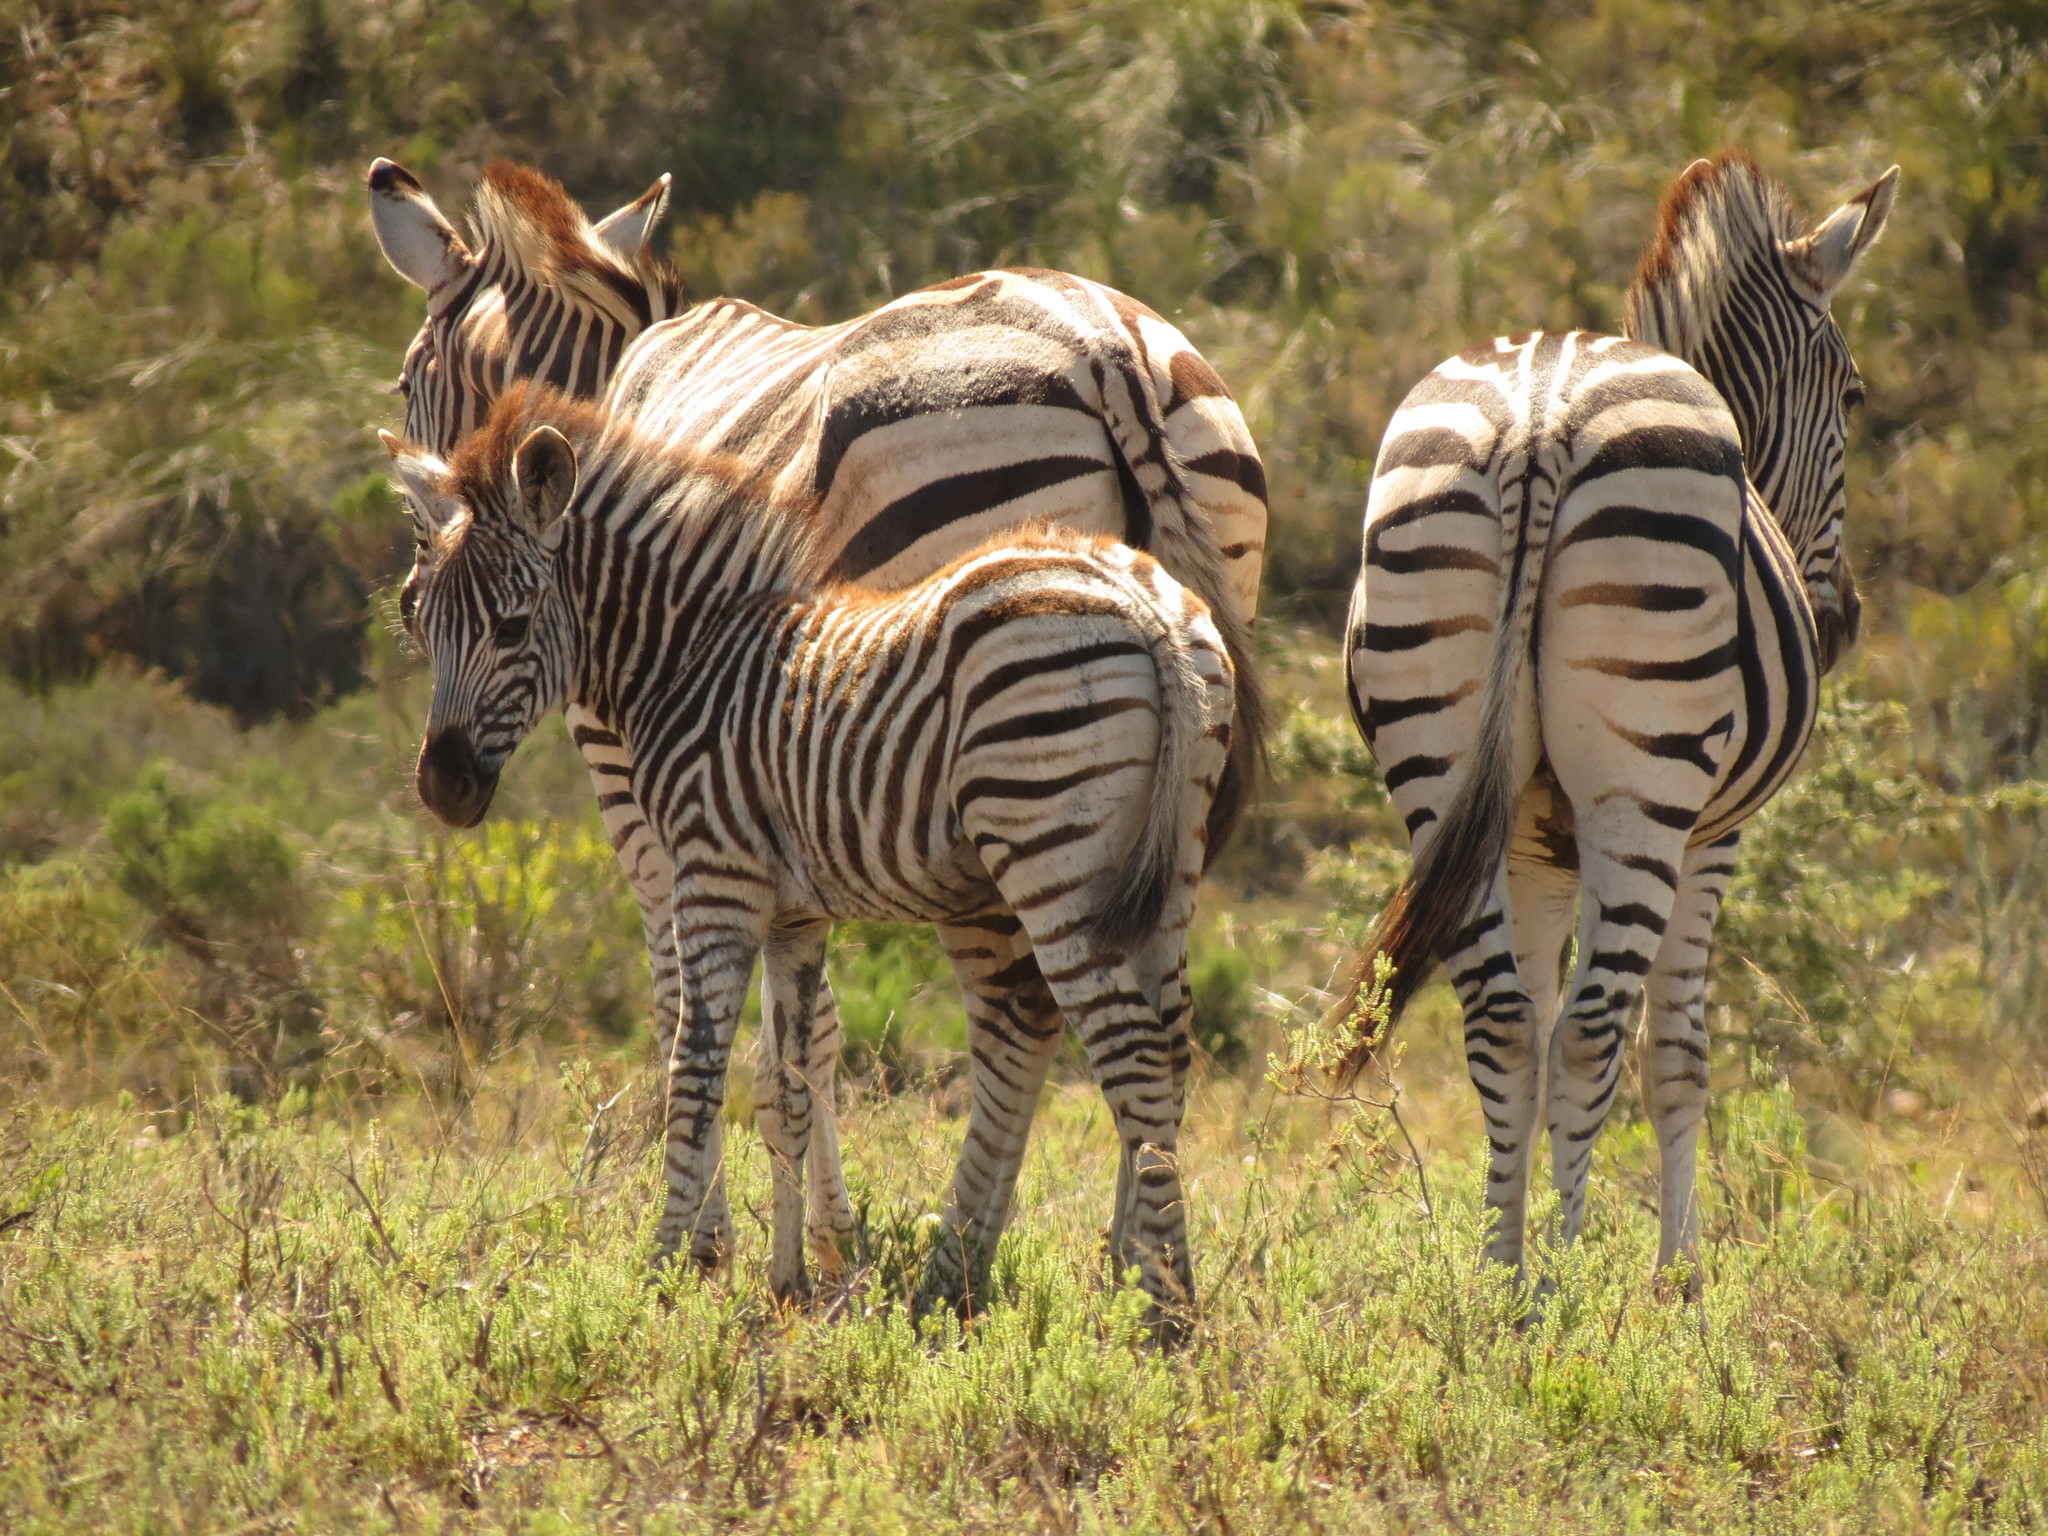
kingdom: Animalia
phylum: Chordata
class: Mammalia
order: Perissodactyla
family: Equidae
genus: Equus
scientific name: Equus quagga
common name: Plains zebra
